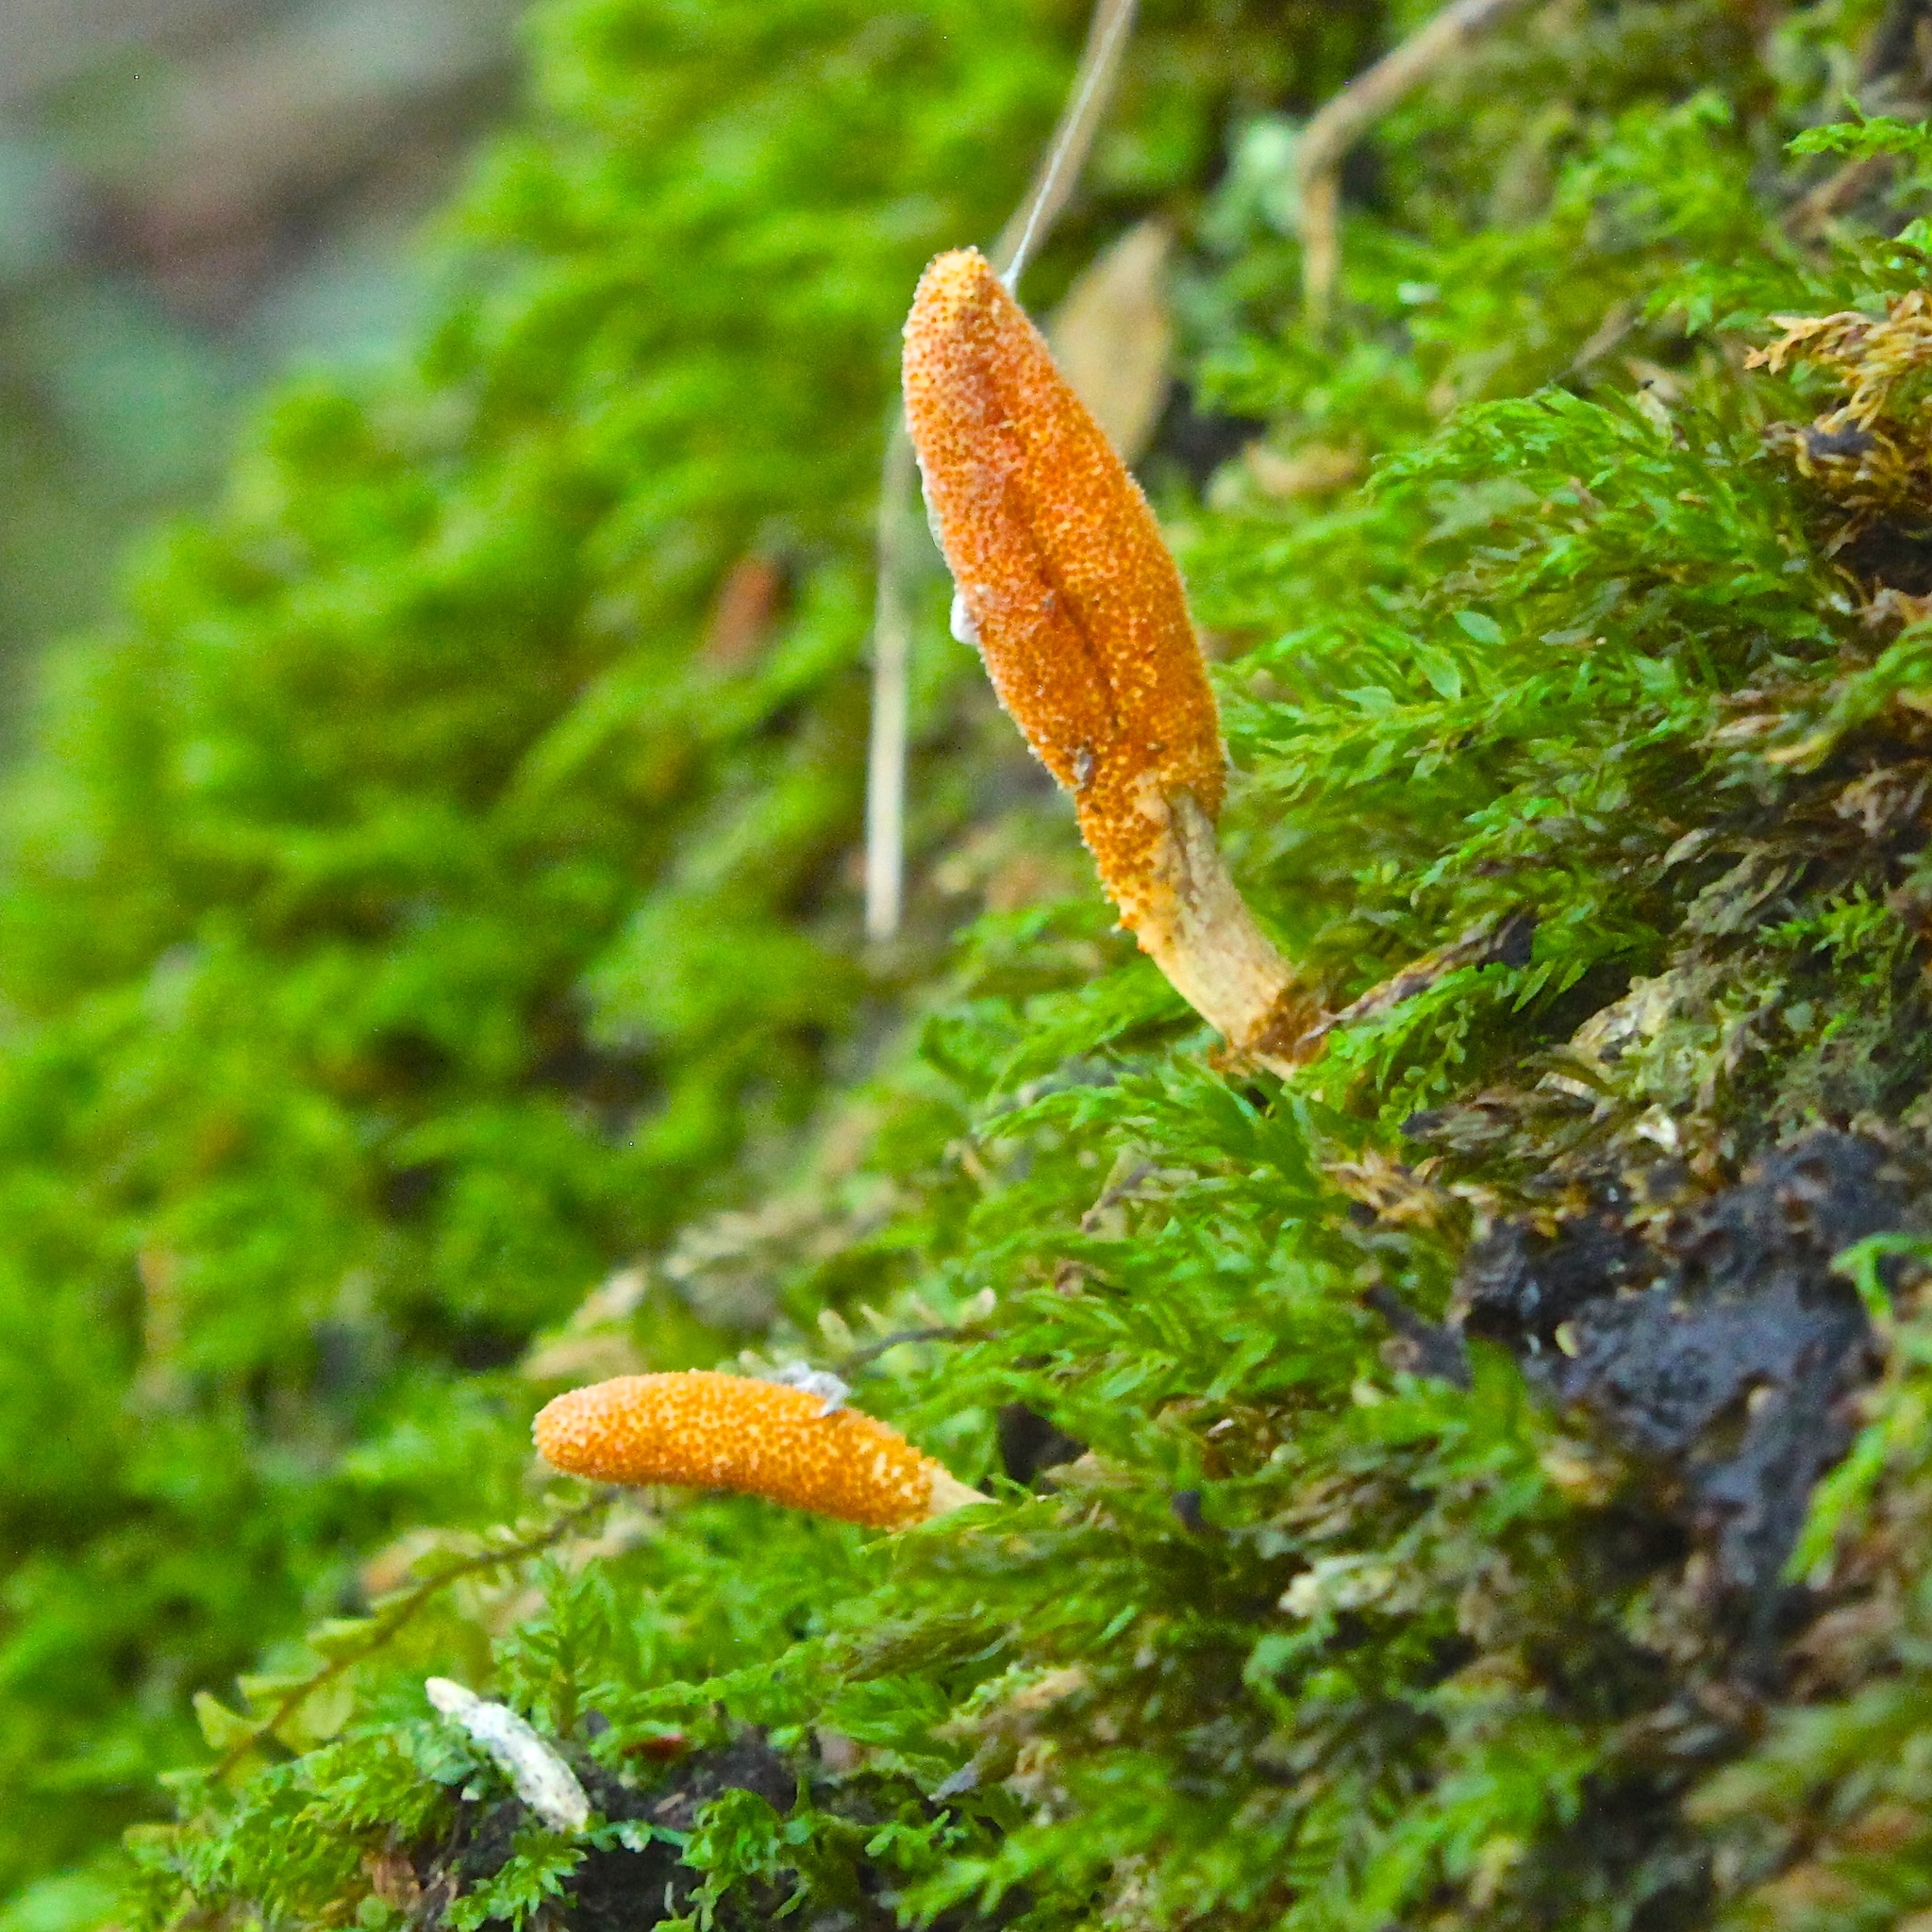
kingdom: Fungi
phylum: Ascomycota
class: Sordariomycetes
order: Hypocreales
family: Cordycipitaceae
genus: Cordyceps
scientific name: Cordyceps militaris
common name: Scarlet caterpillar fungus
